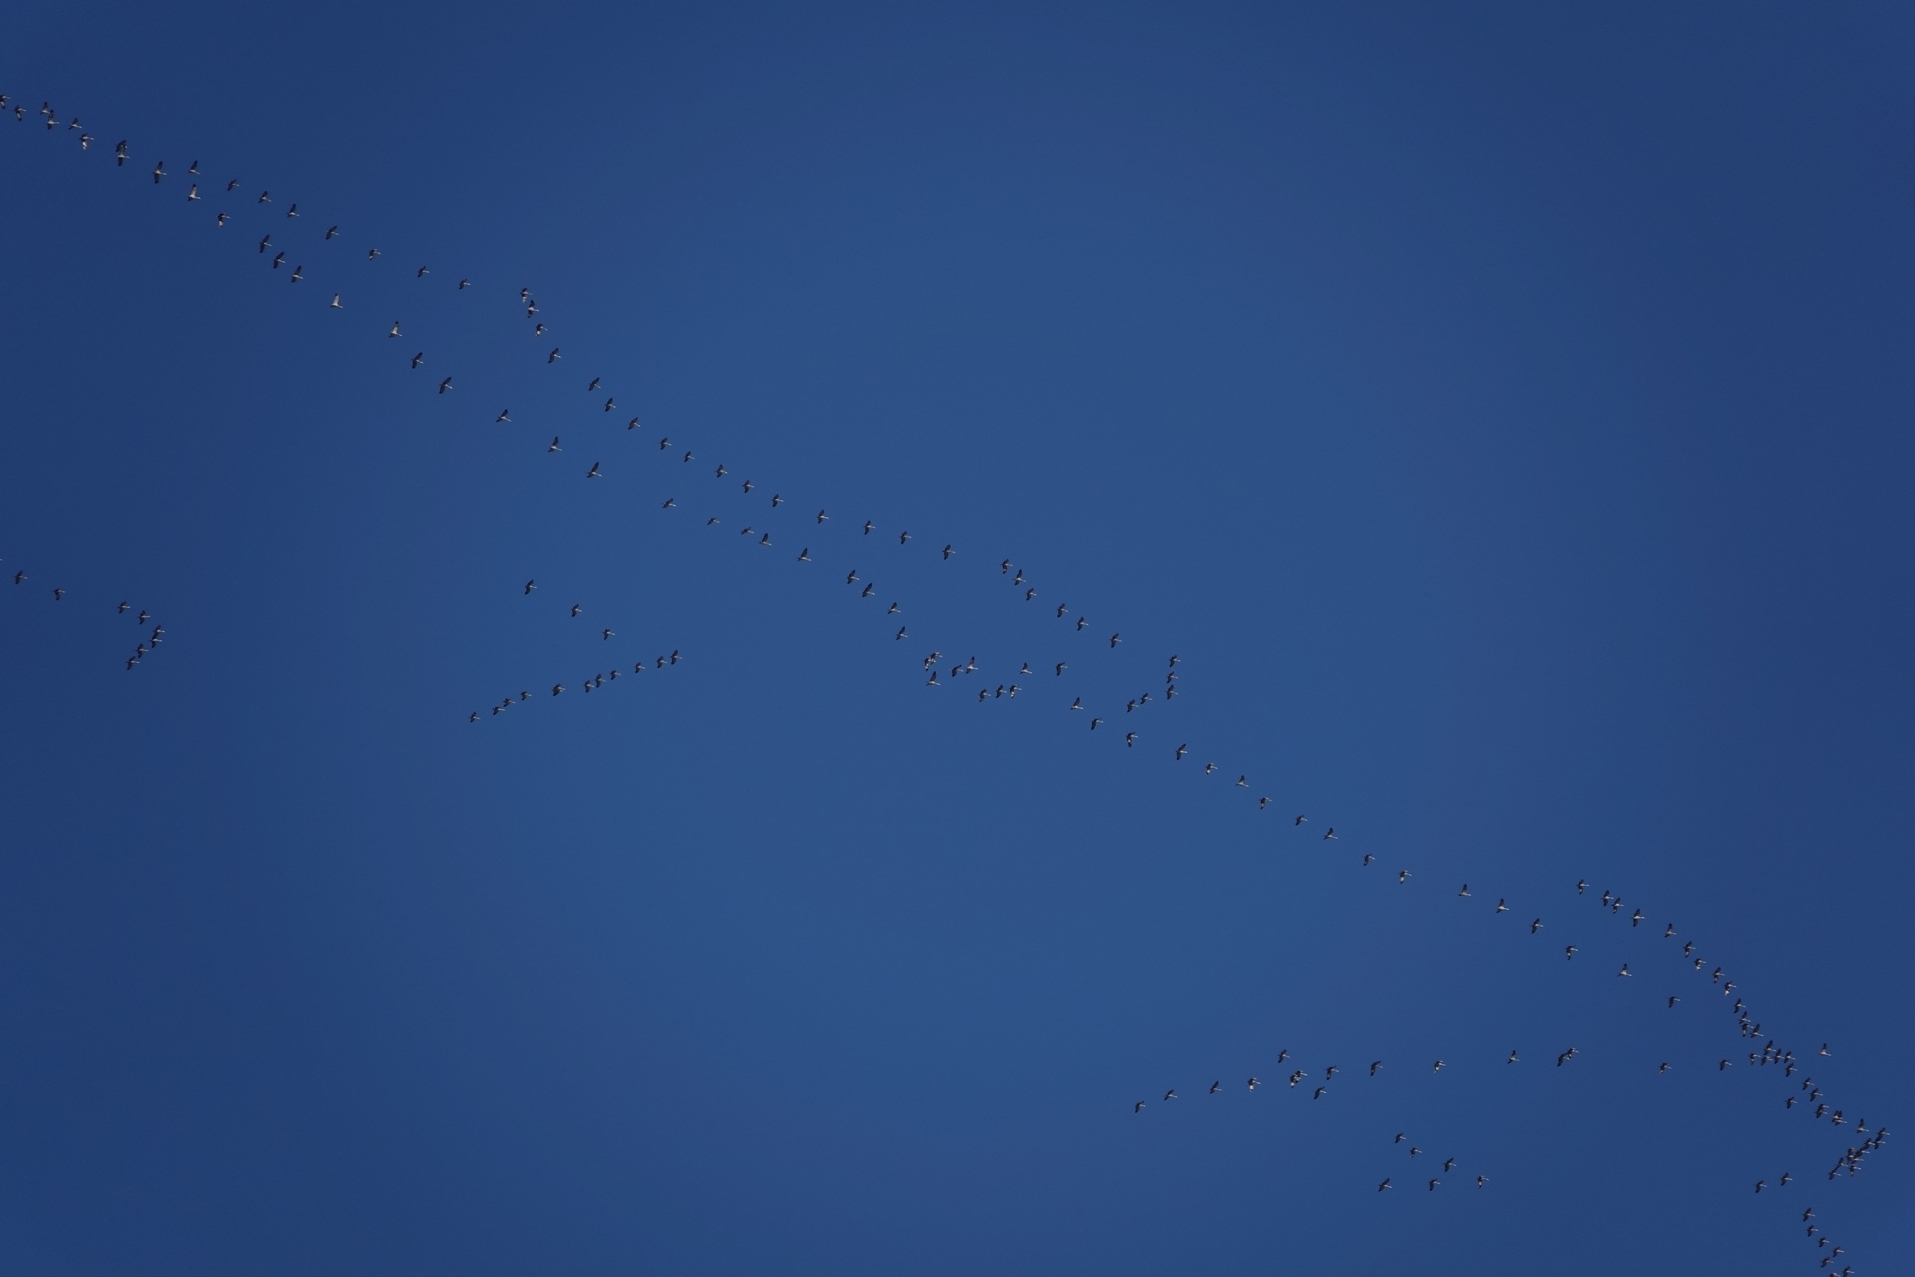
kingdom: Animalia
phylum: Chordata
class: Aves
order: Gruiformes
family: Gruidae
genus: Grus
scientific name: Grus canadensis
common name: Sandhill crane
